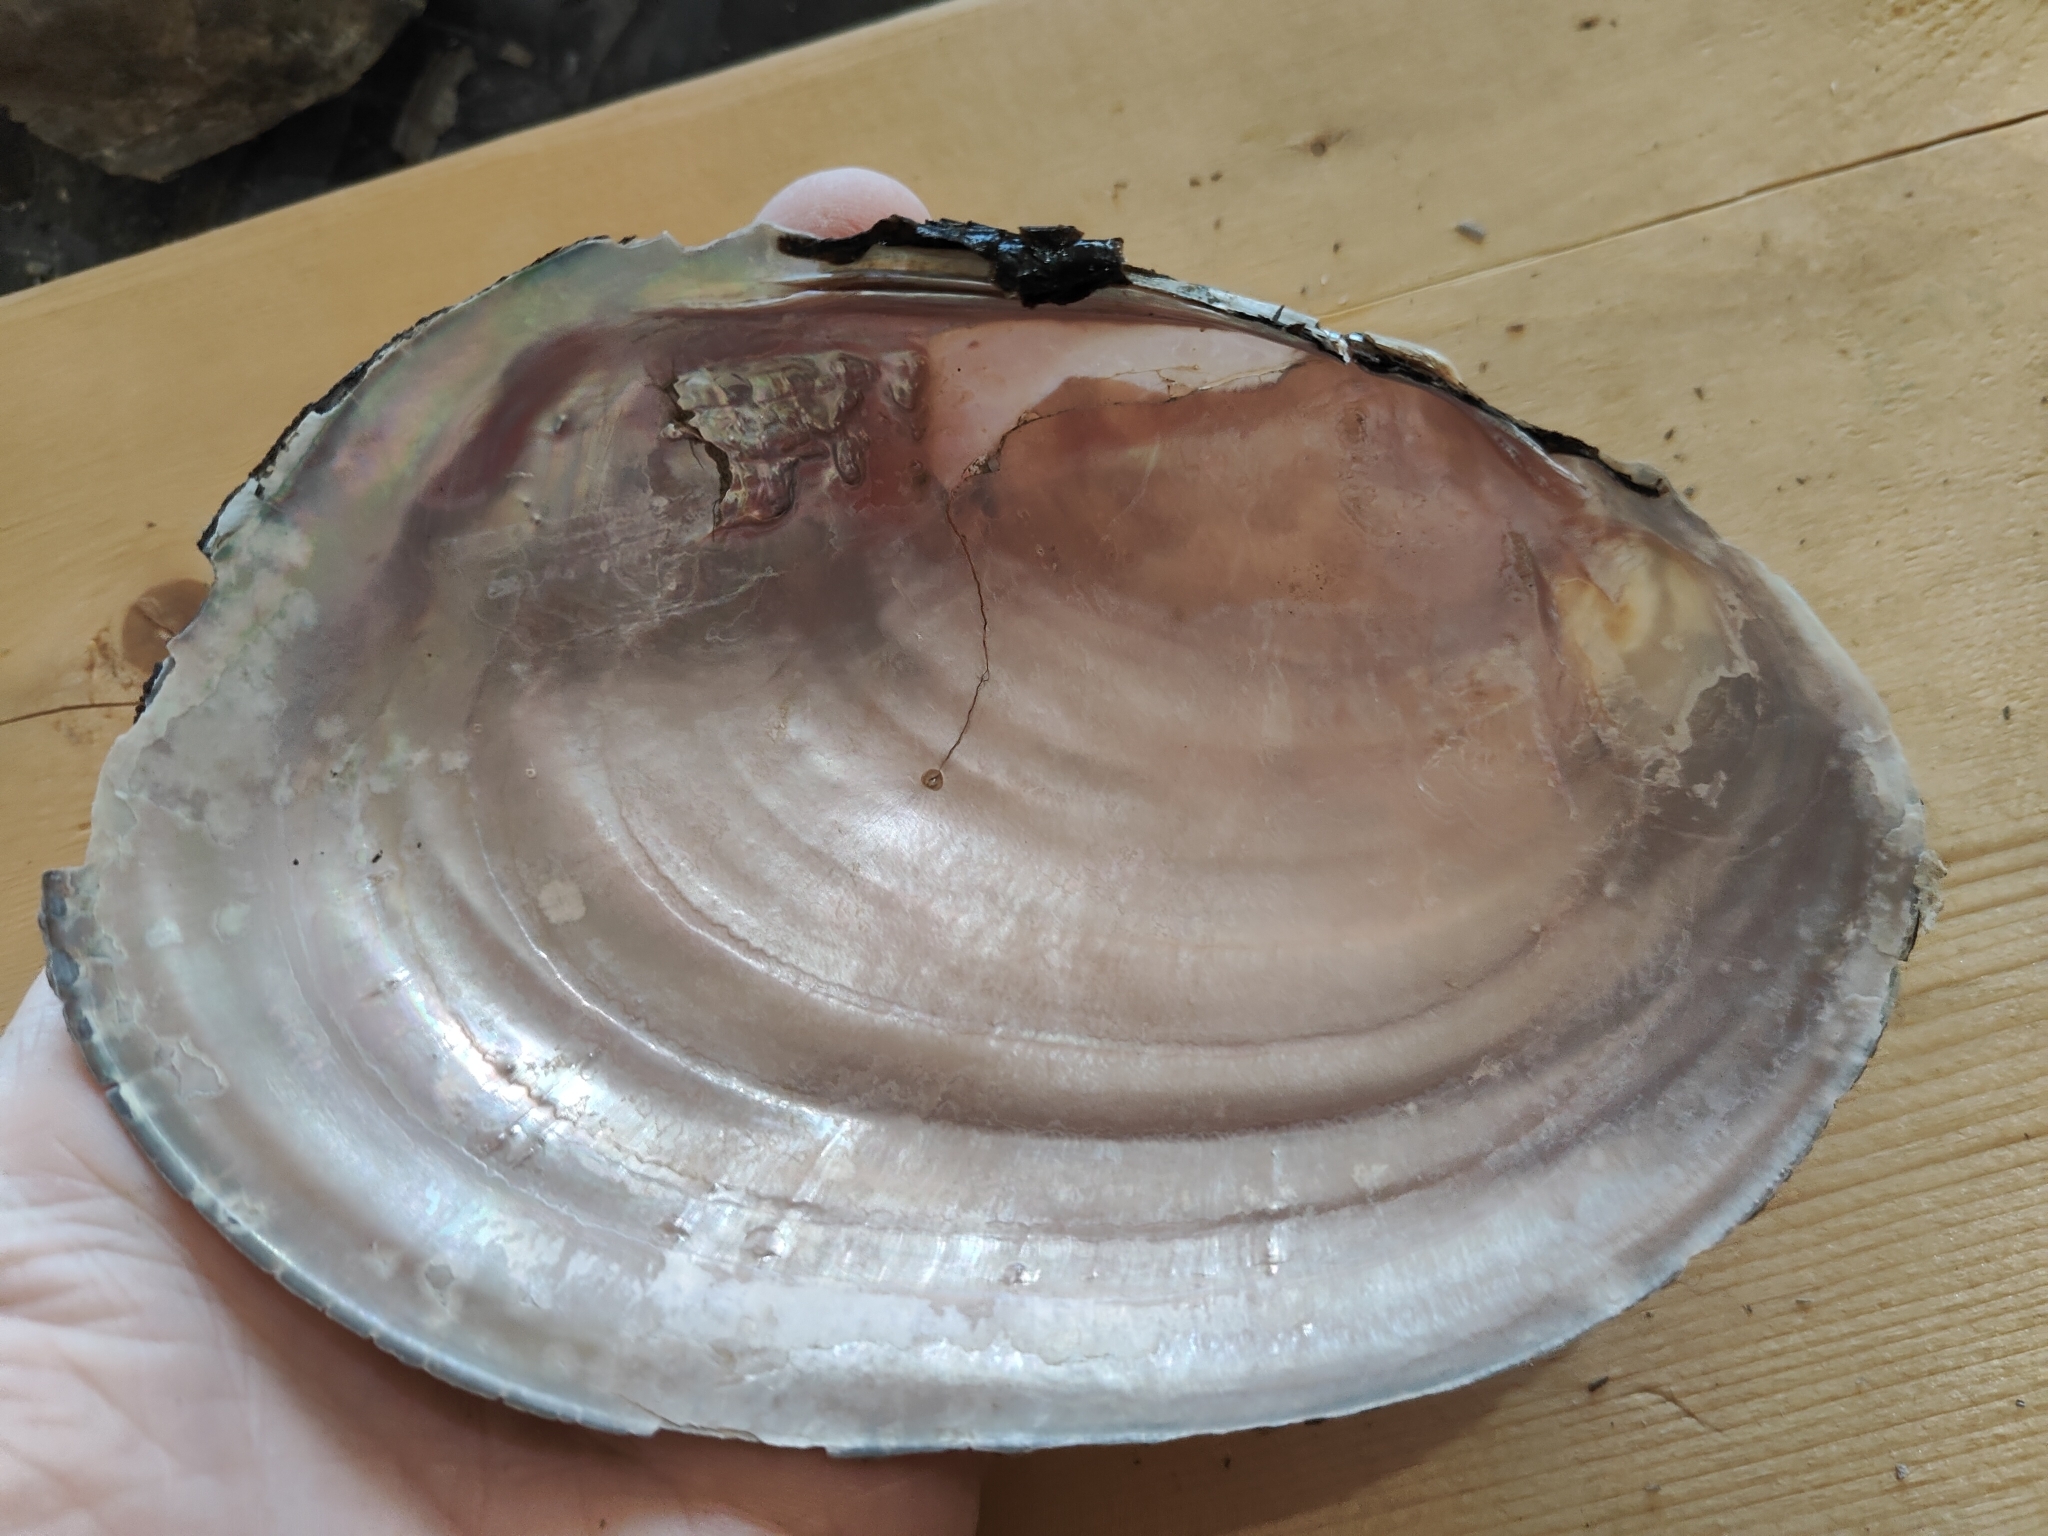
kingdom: Animalia
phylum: Mollusca
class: Bivalvia
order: Unionida
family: Unionidae
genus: Potamilus
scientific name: Potamilus ohiensis
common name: Pink papershell
